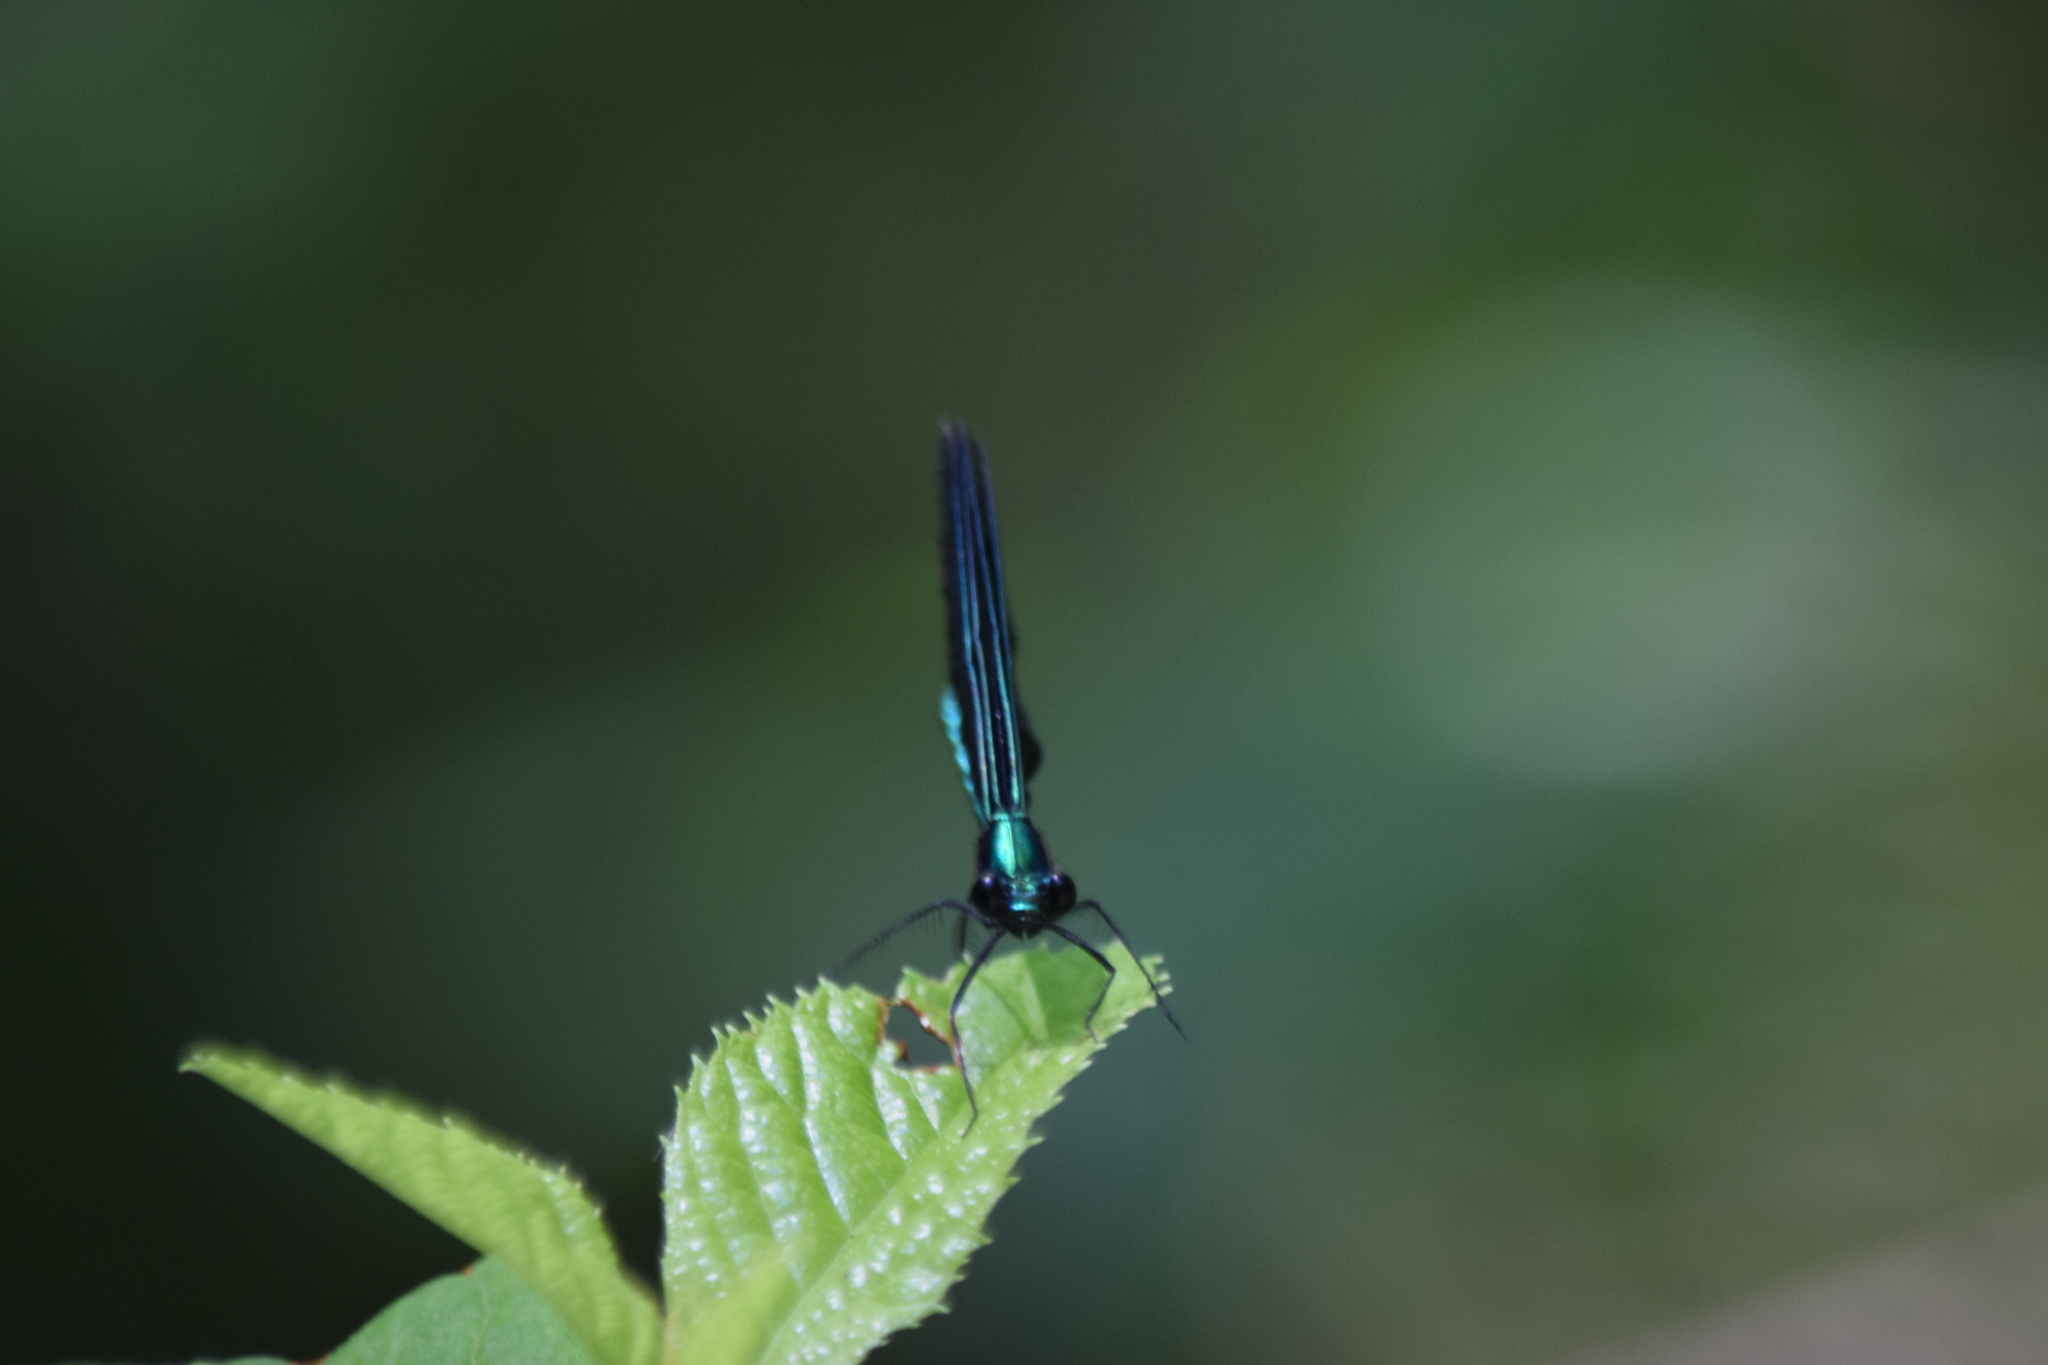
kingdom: Animalia
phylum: Arthropoda
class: Insecta
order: Odonata
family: Calopterygidae
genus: Calopteryx
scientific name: Calopteryx maculata
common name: Ebony jewelwing
